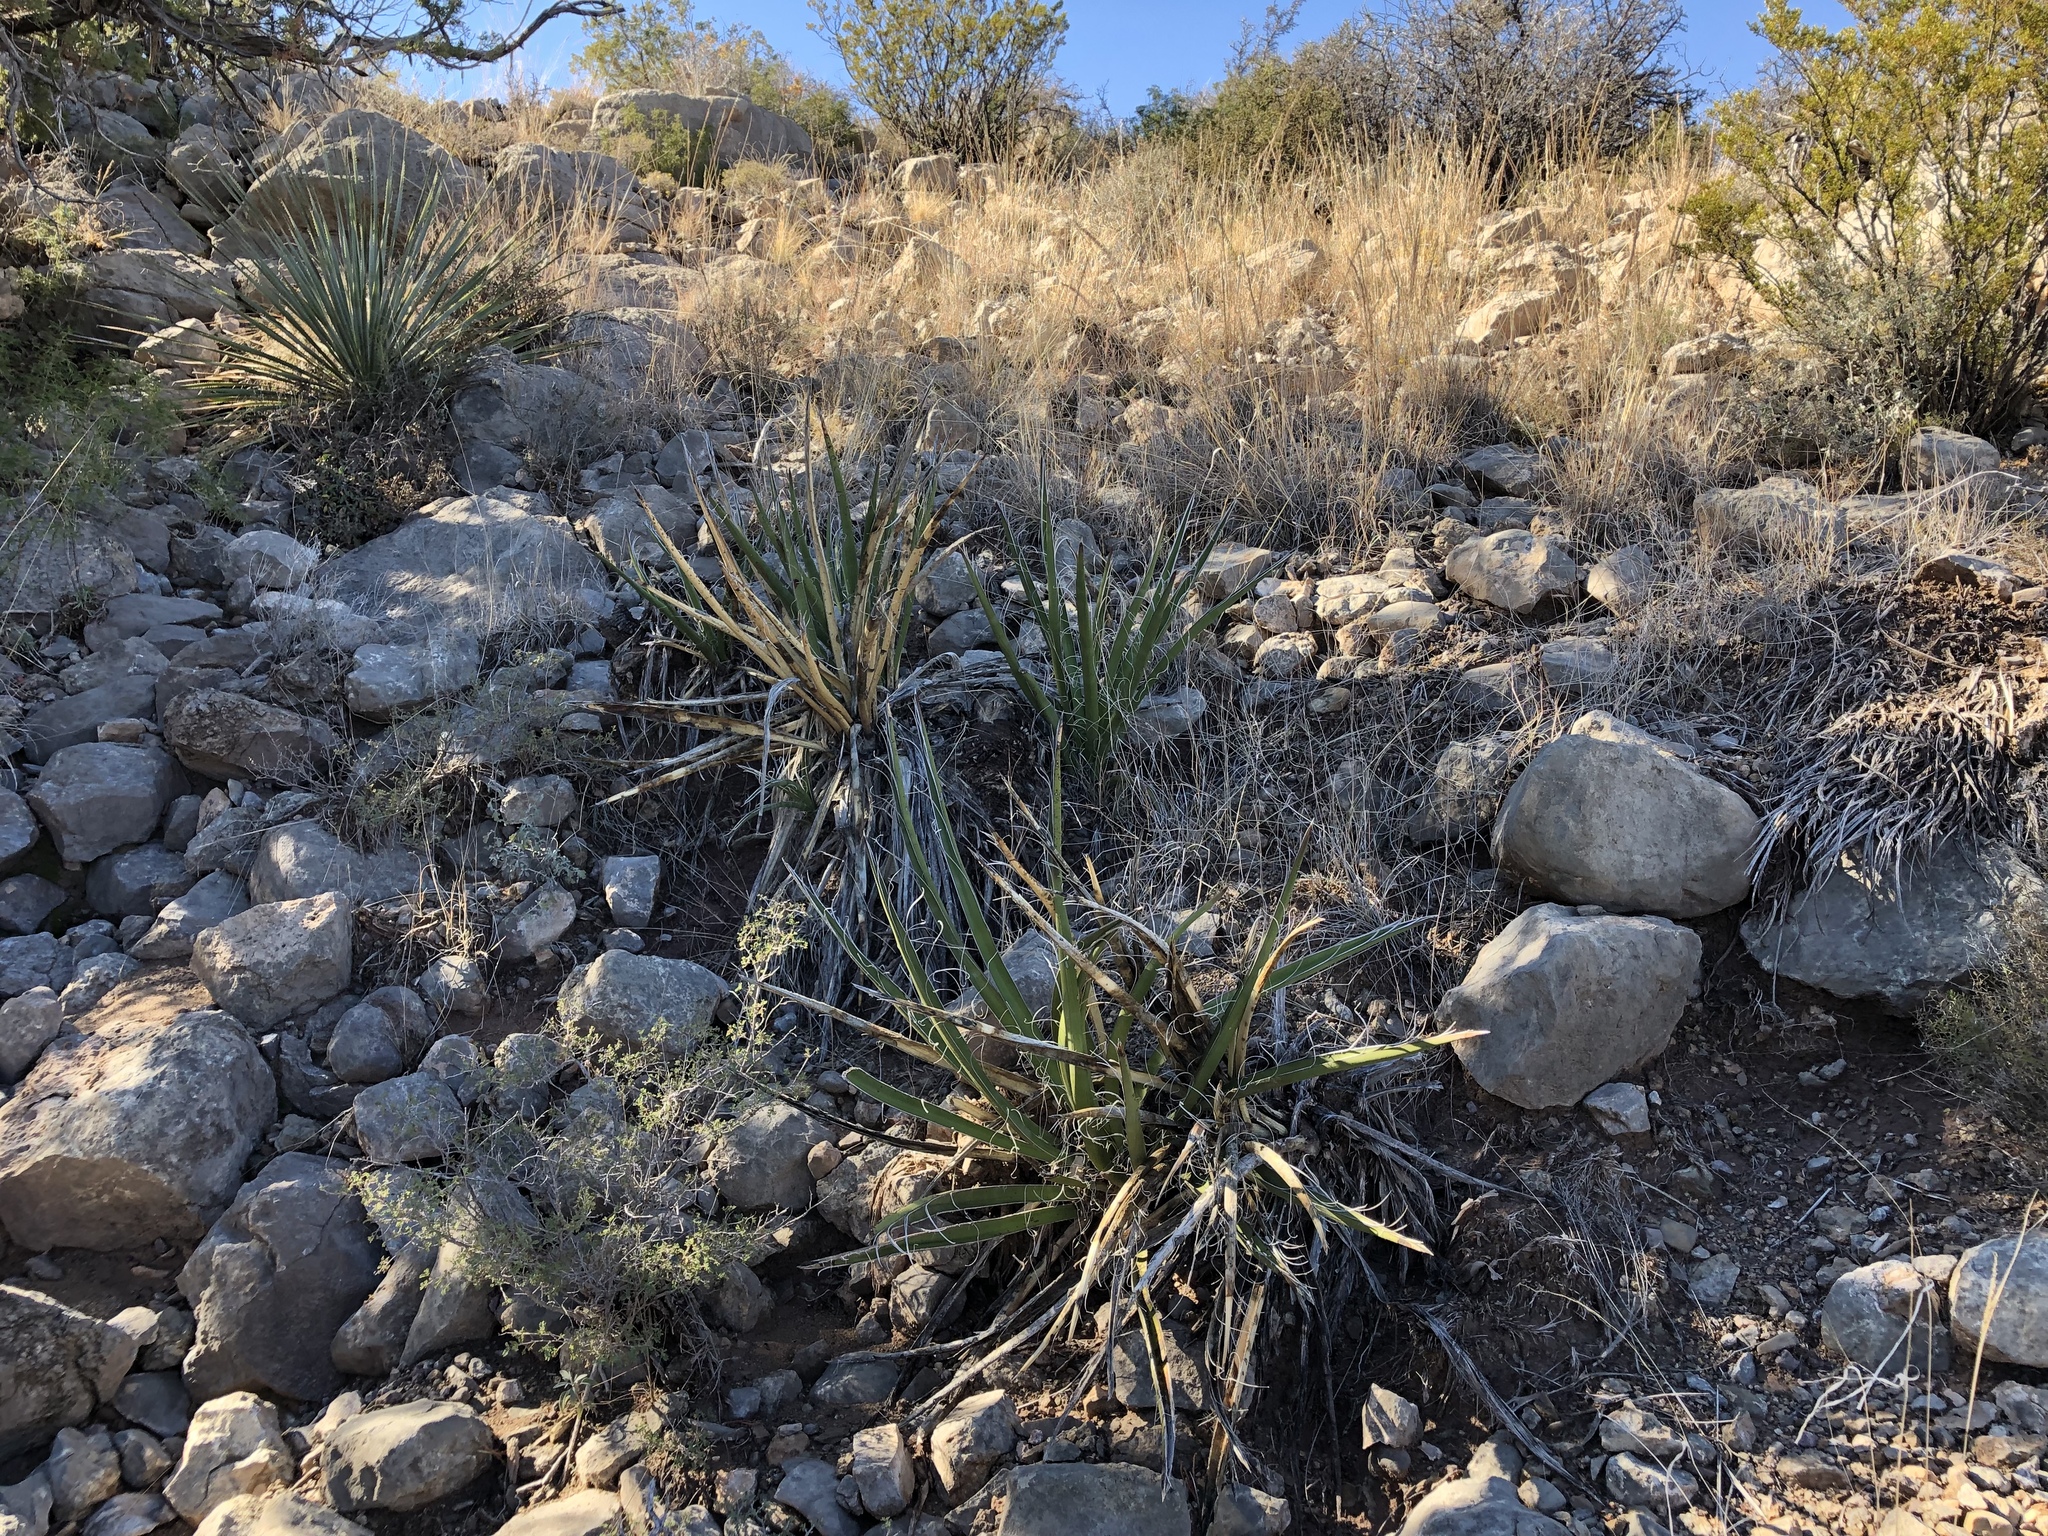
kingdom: Plantae
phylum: Tracheophyta
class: Liliopsida
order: Asparagales
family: Asparagaceae
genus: Yucca
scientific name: Yucca baccata
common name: Banana yucca
